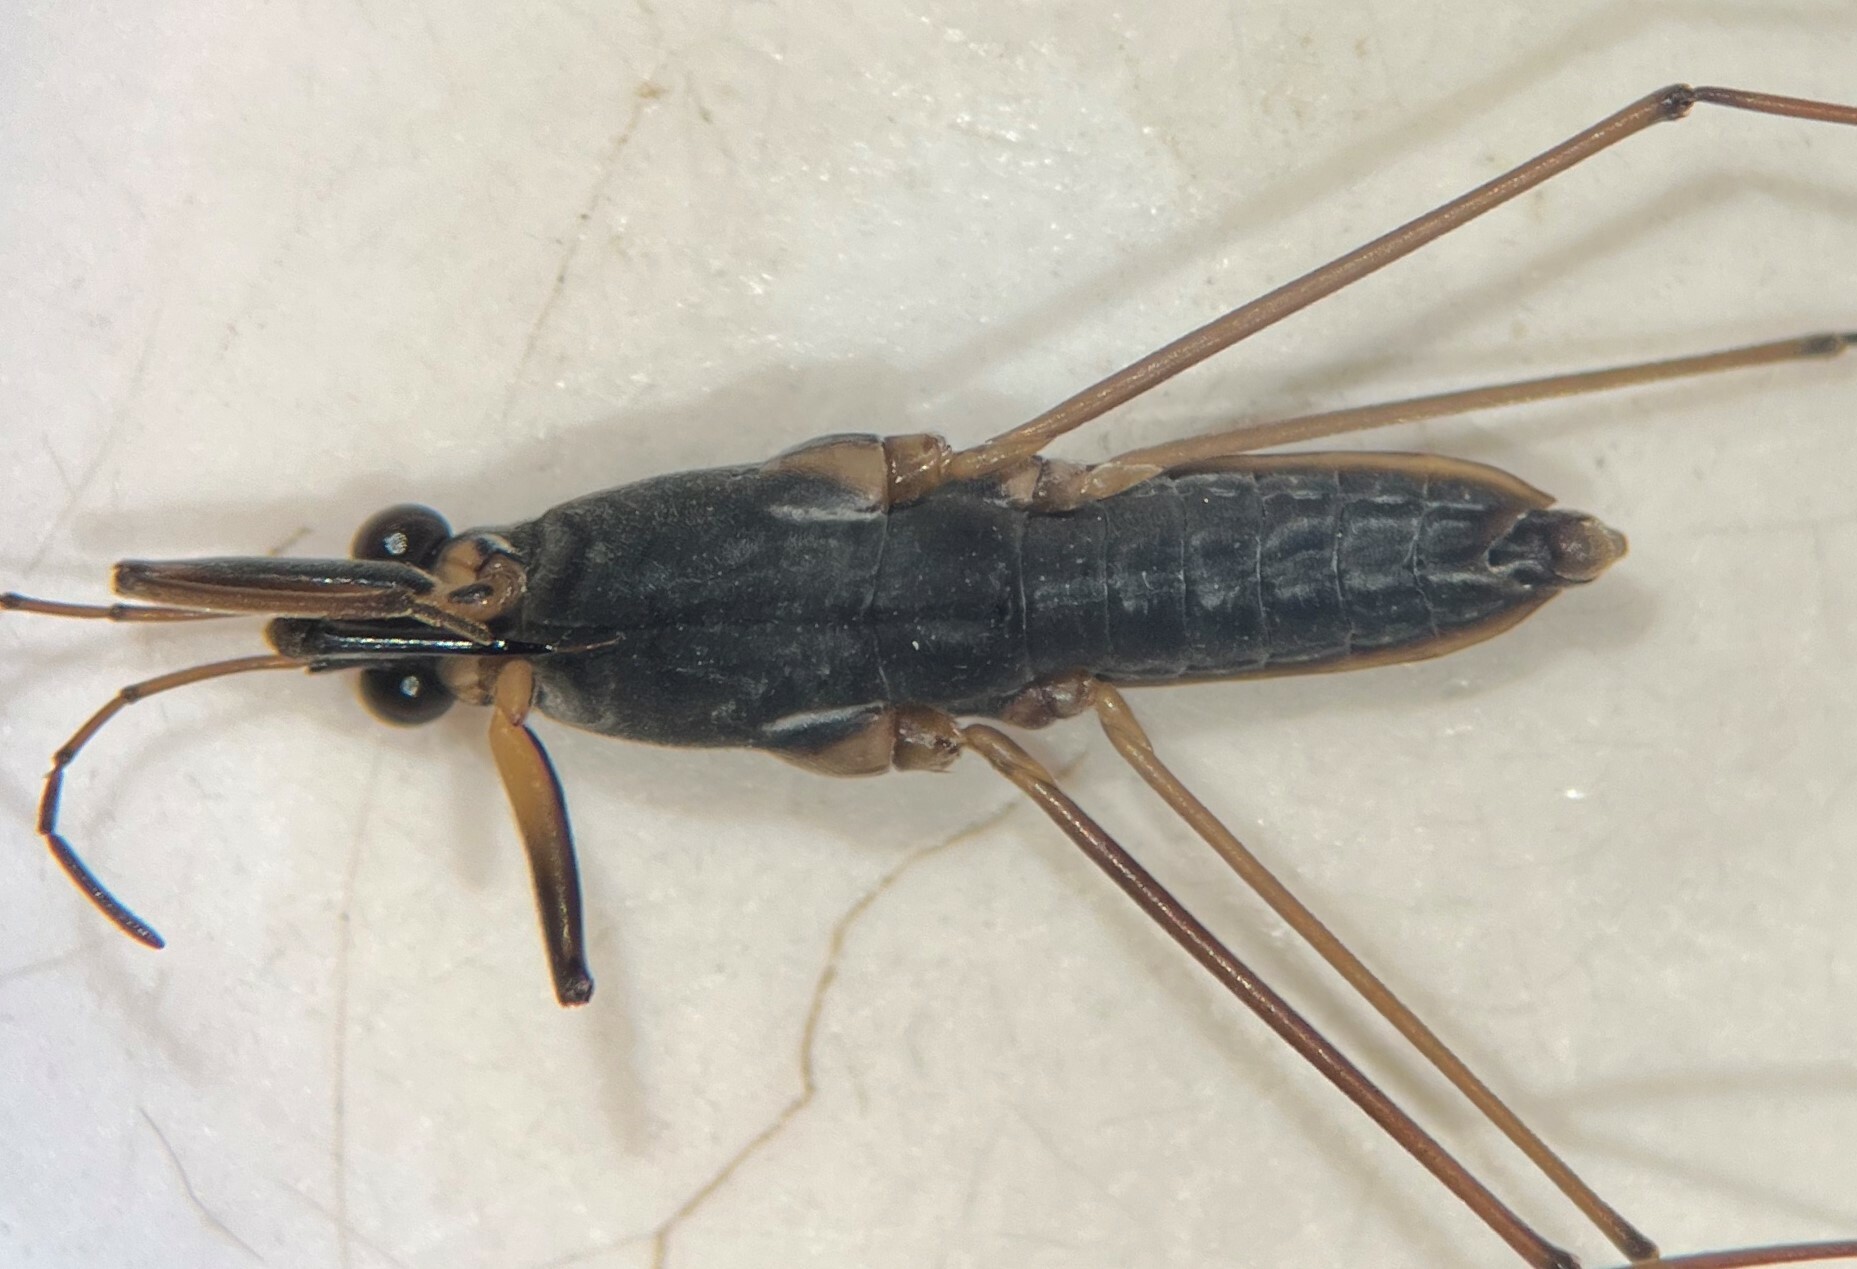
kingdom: Animalia
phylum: Arthropoda
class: Insecta
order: Hemiptera
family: Gerridae
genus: Gerris
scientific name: Gerris marginatus
